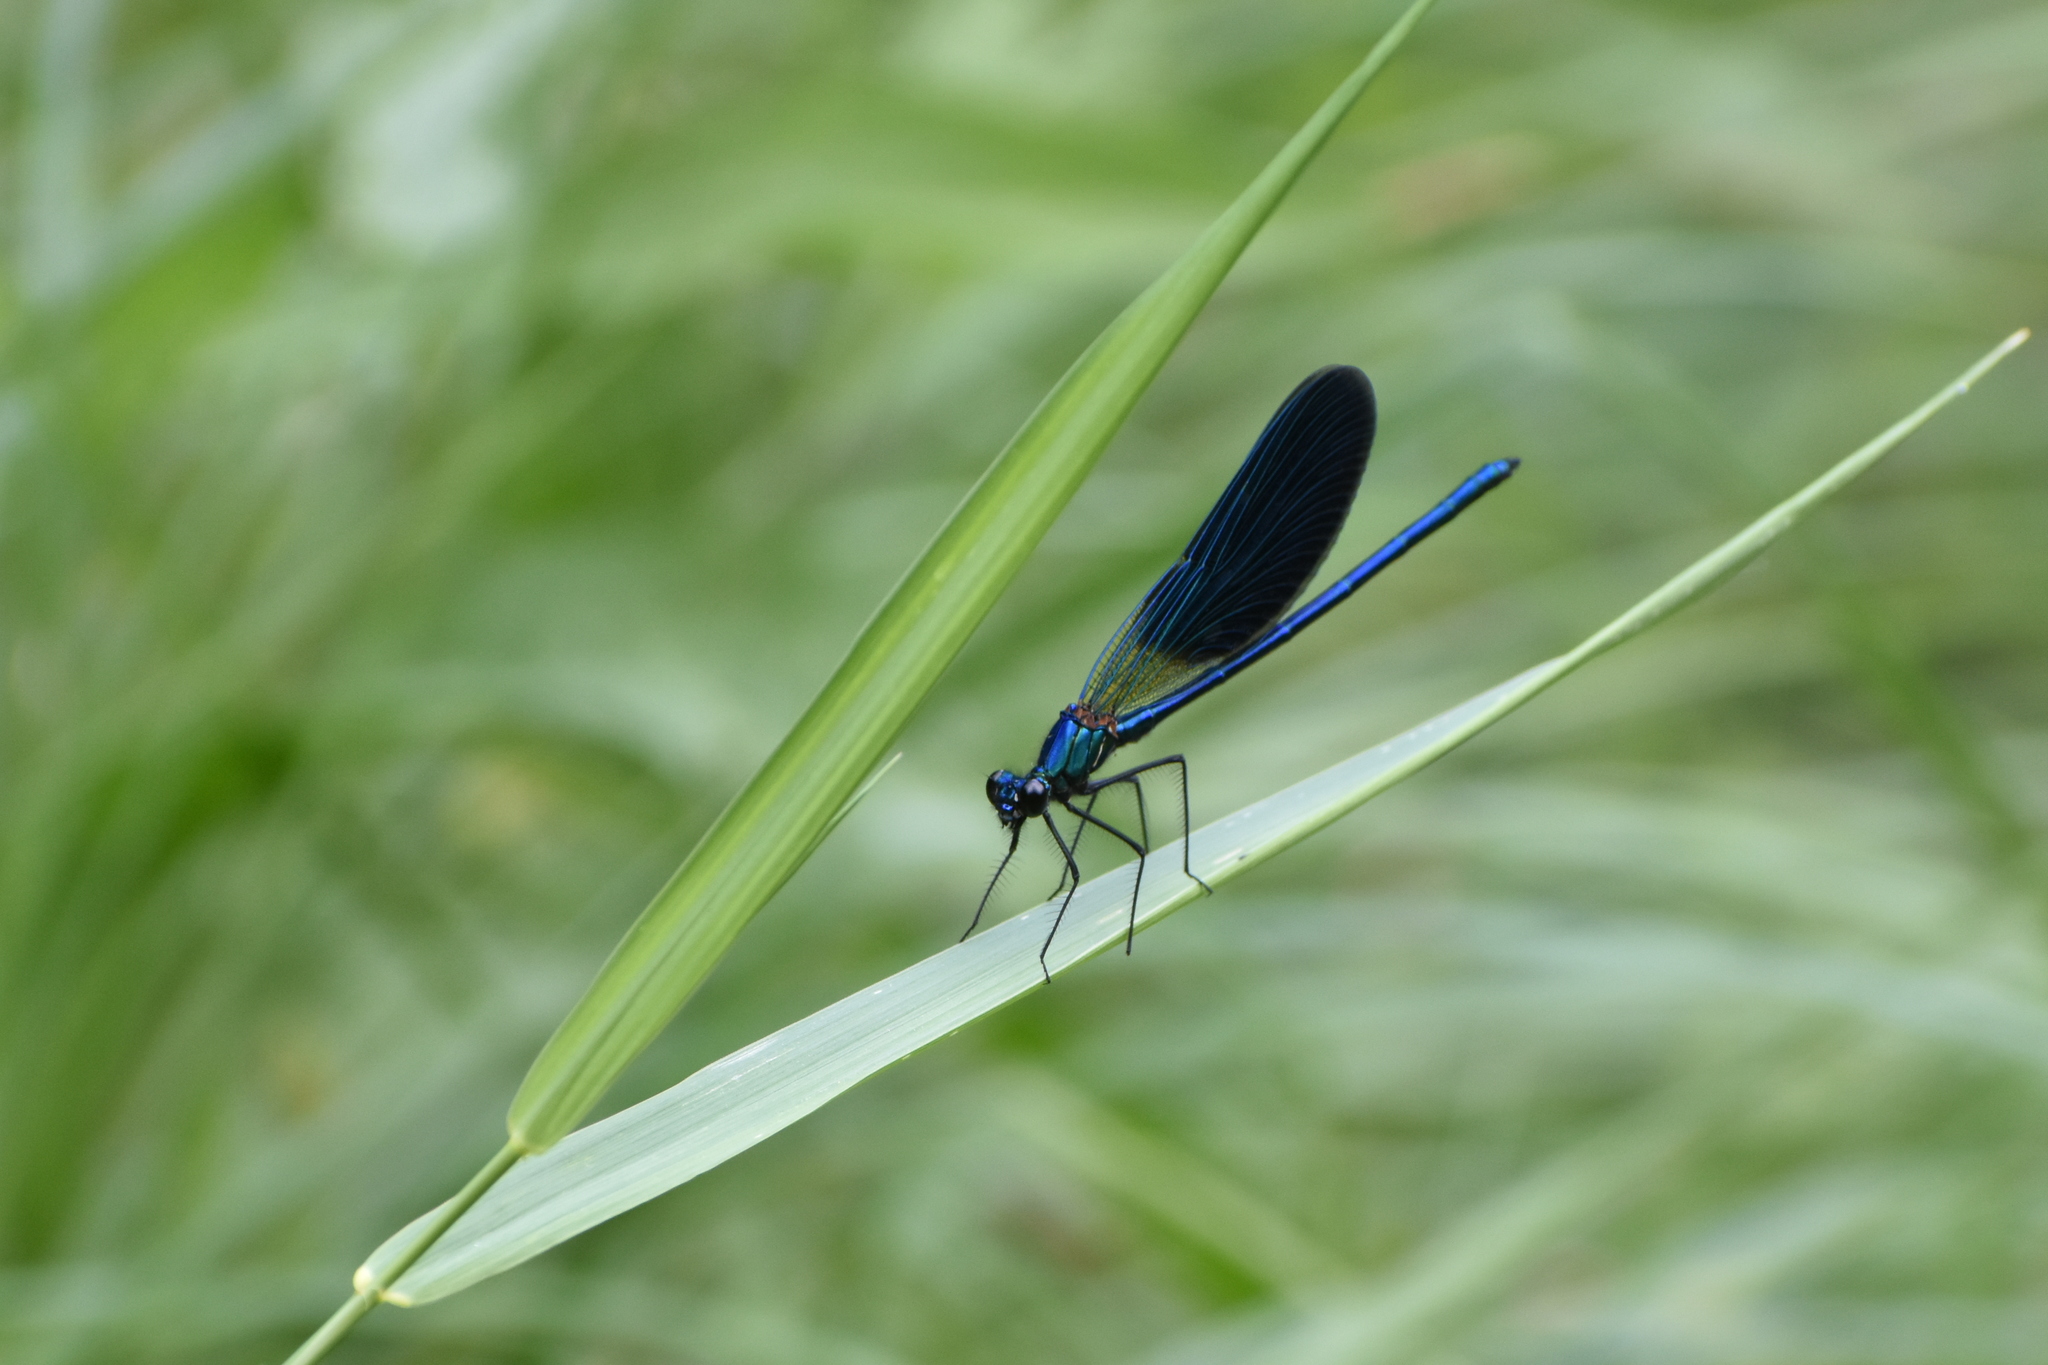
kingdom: Animalia
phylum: Arthropoda
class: Insecta
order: Odonata
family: Calopterygidae
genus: Calopteryx
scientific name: Calopteryx splendens
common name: Banded demoiselle
